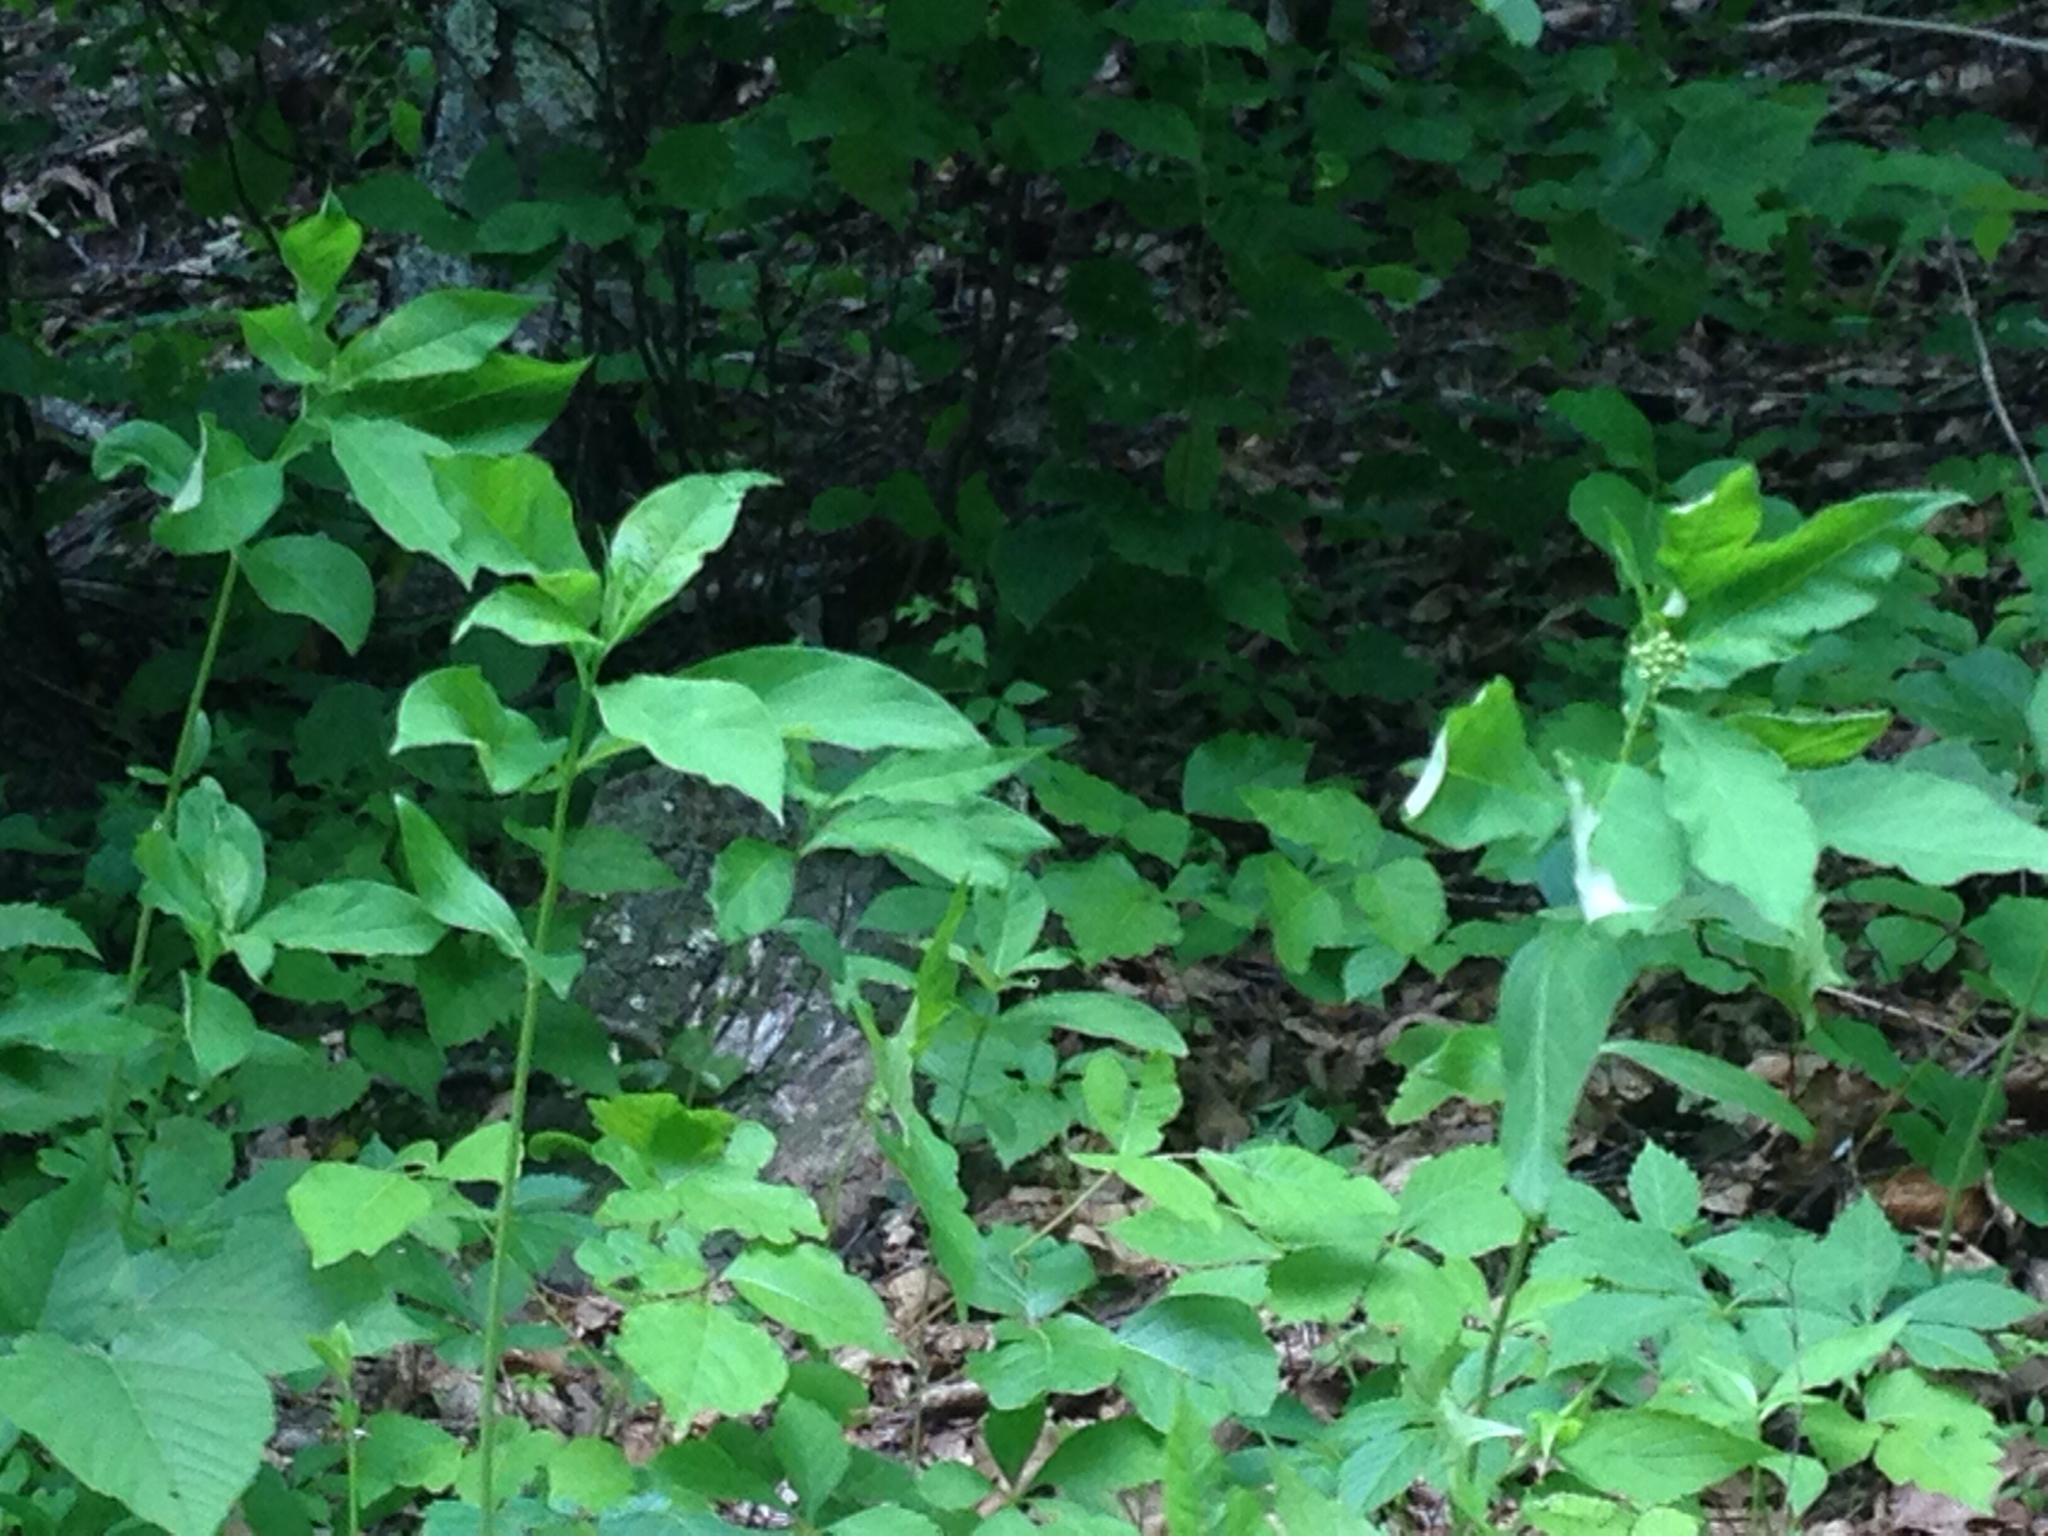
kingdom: Plantae
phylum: Tracheophyta
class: Magnoliopsida
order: Gentianales
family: Apocynaceae
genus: Asclepias
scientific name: Asclepias exaltata
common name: Poke milkweed
